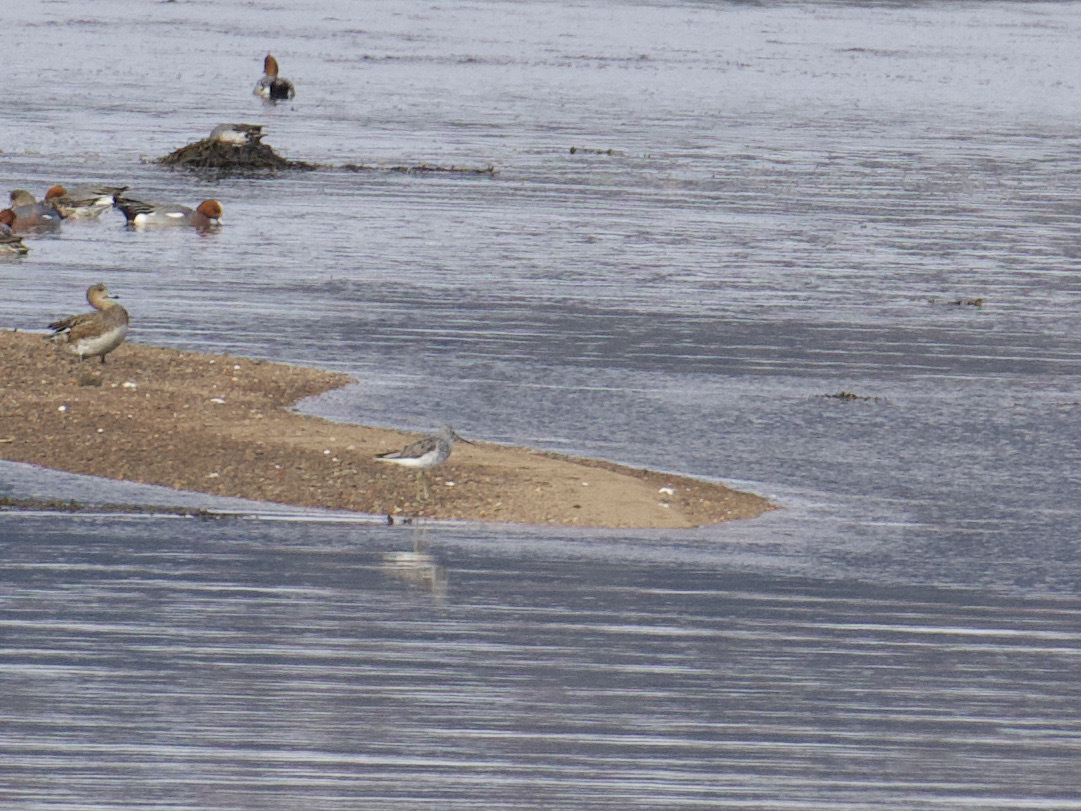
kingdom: Animalia
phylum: Chordata
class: Aves
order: Charadriiformes
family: Scolopacidae
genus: Tringa
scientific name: Tringa nebularia
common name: Common greenshank
